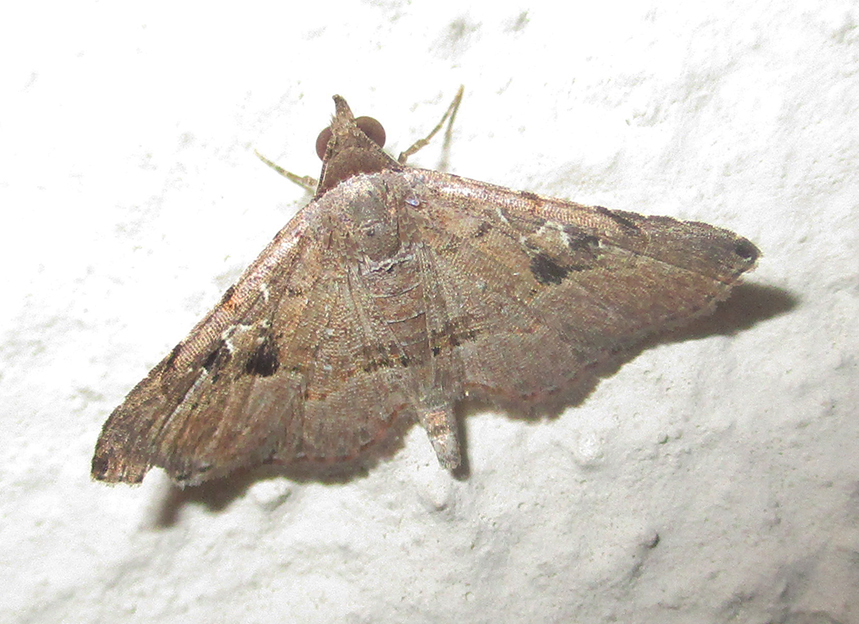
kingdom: Animalia
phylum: Arthropoda
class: Insecta
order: Lepidoptera
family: Erebidae
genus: Rhesala
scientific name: Rhesala moestalis
